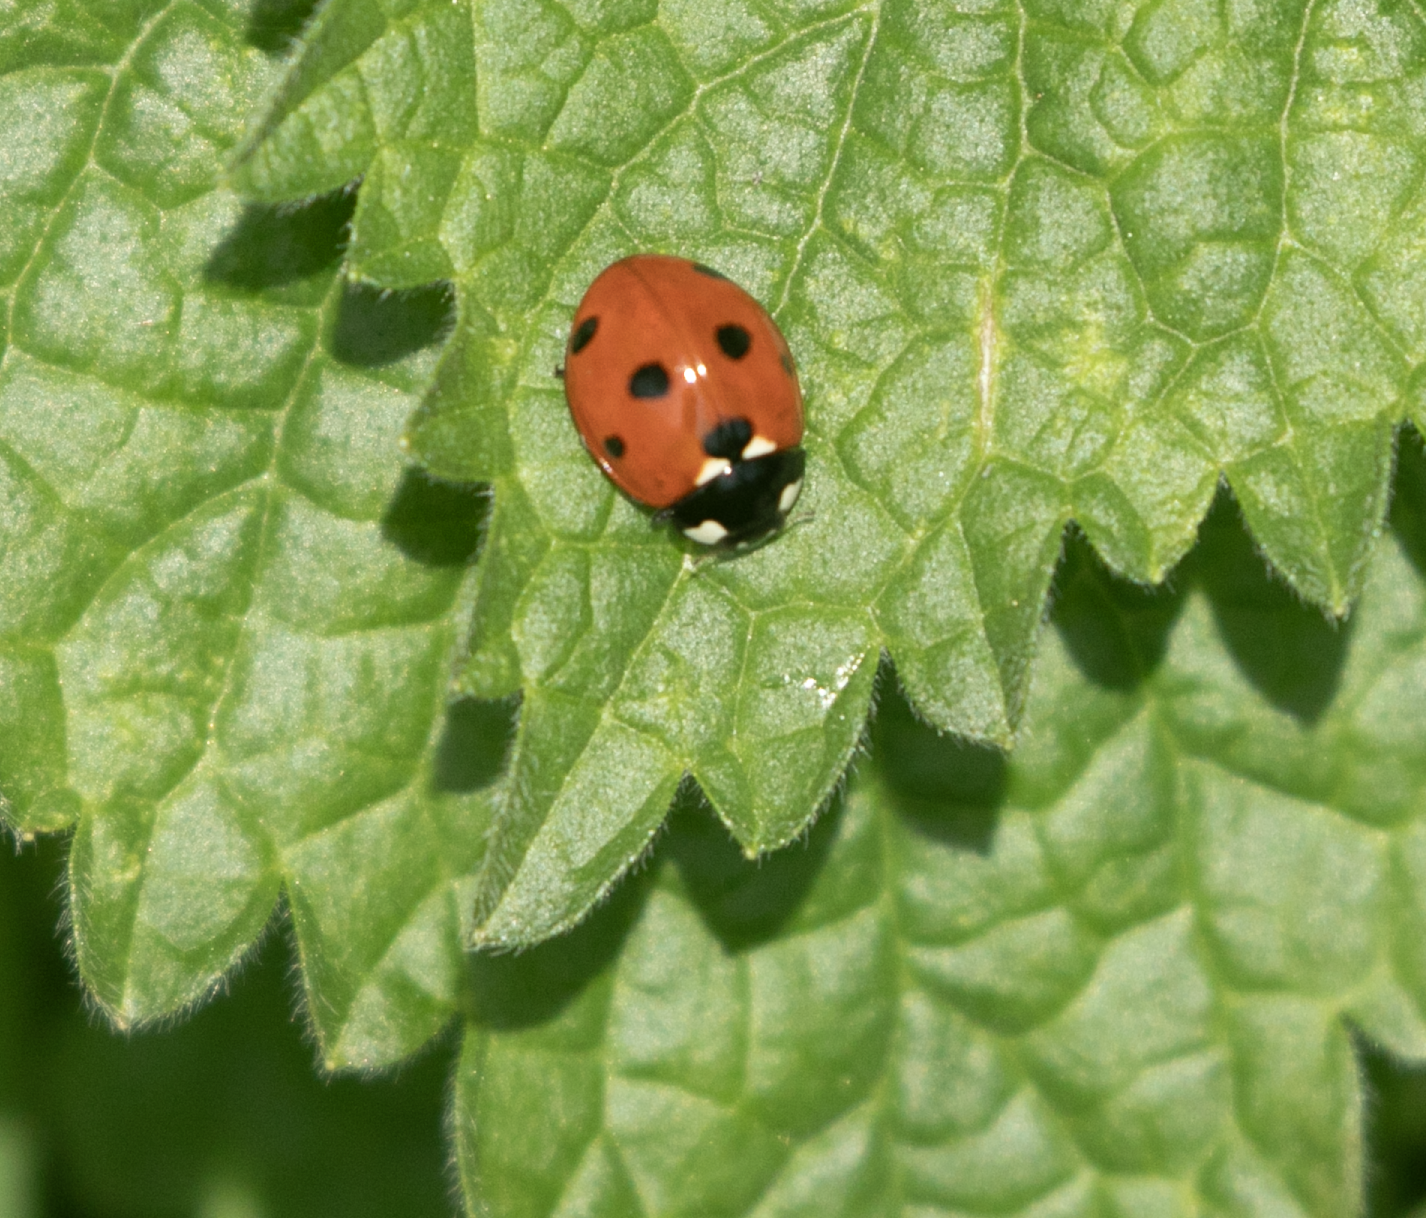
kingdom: Animalia
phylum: Arthropoda
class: Insecta
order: Coleoptera
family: Coccinellidae
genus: Coccinella
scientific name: Coccinella septempunctata
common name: Sevenspotted lady beetle
